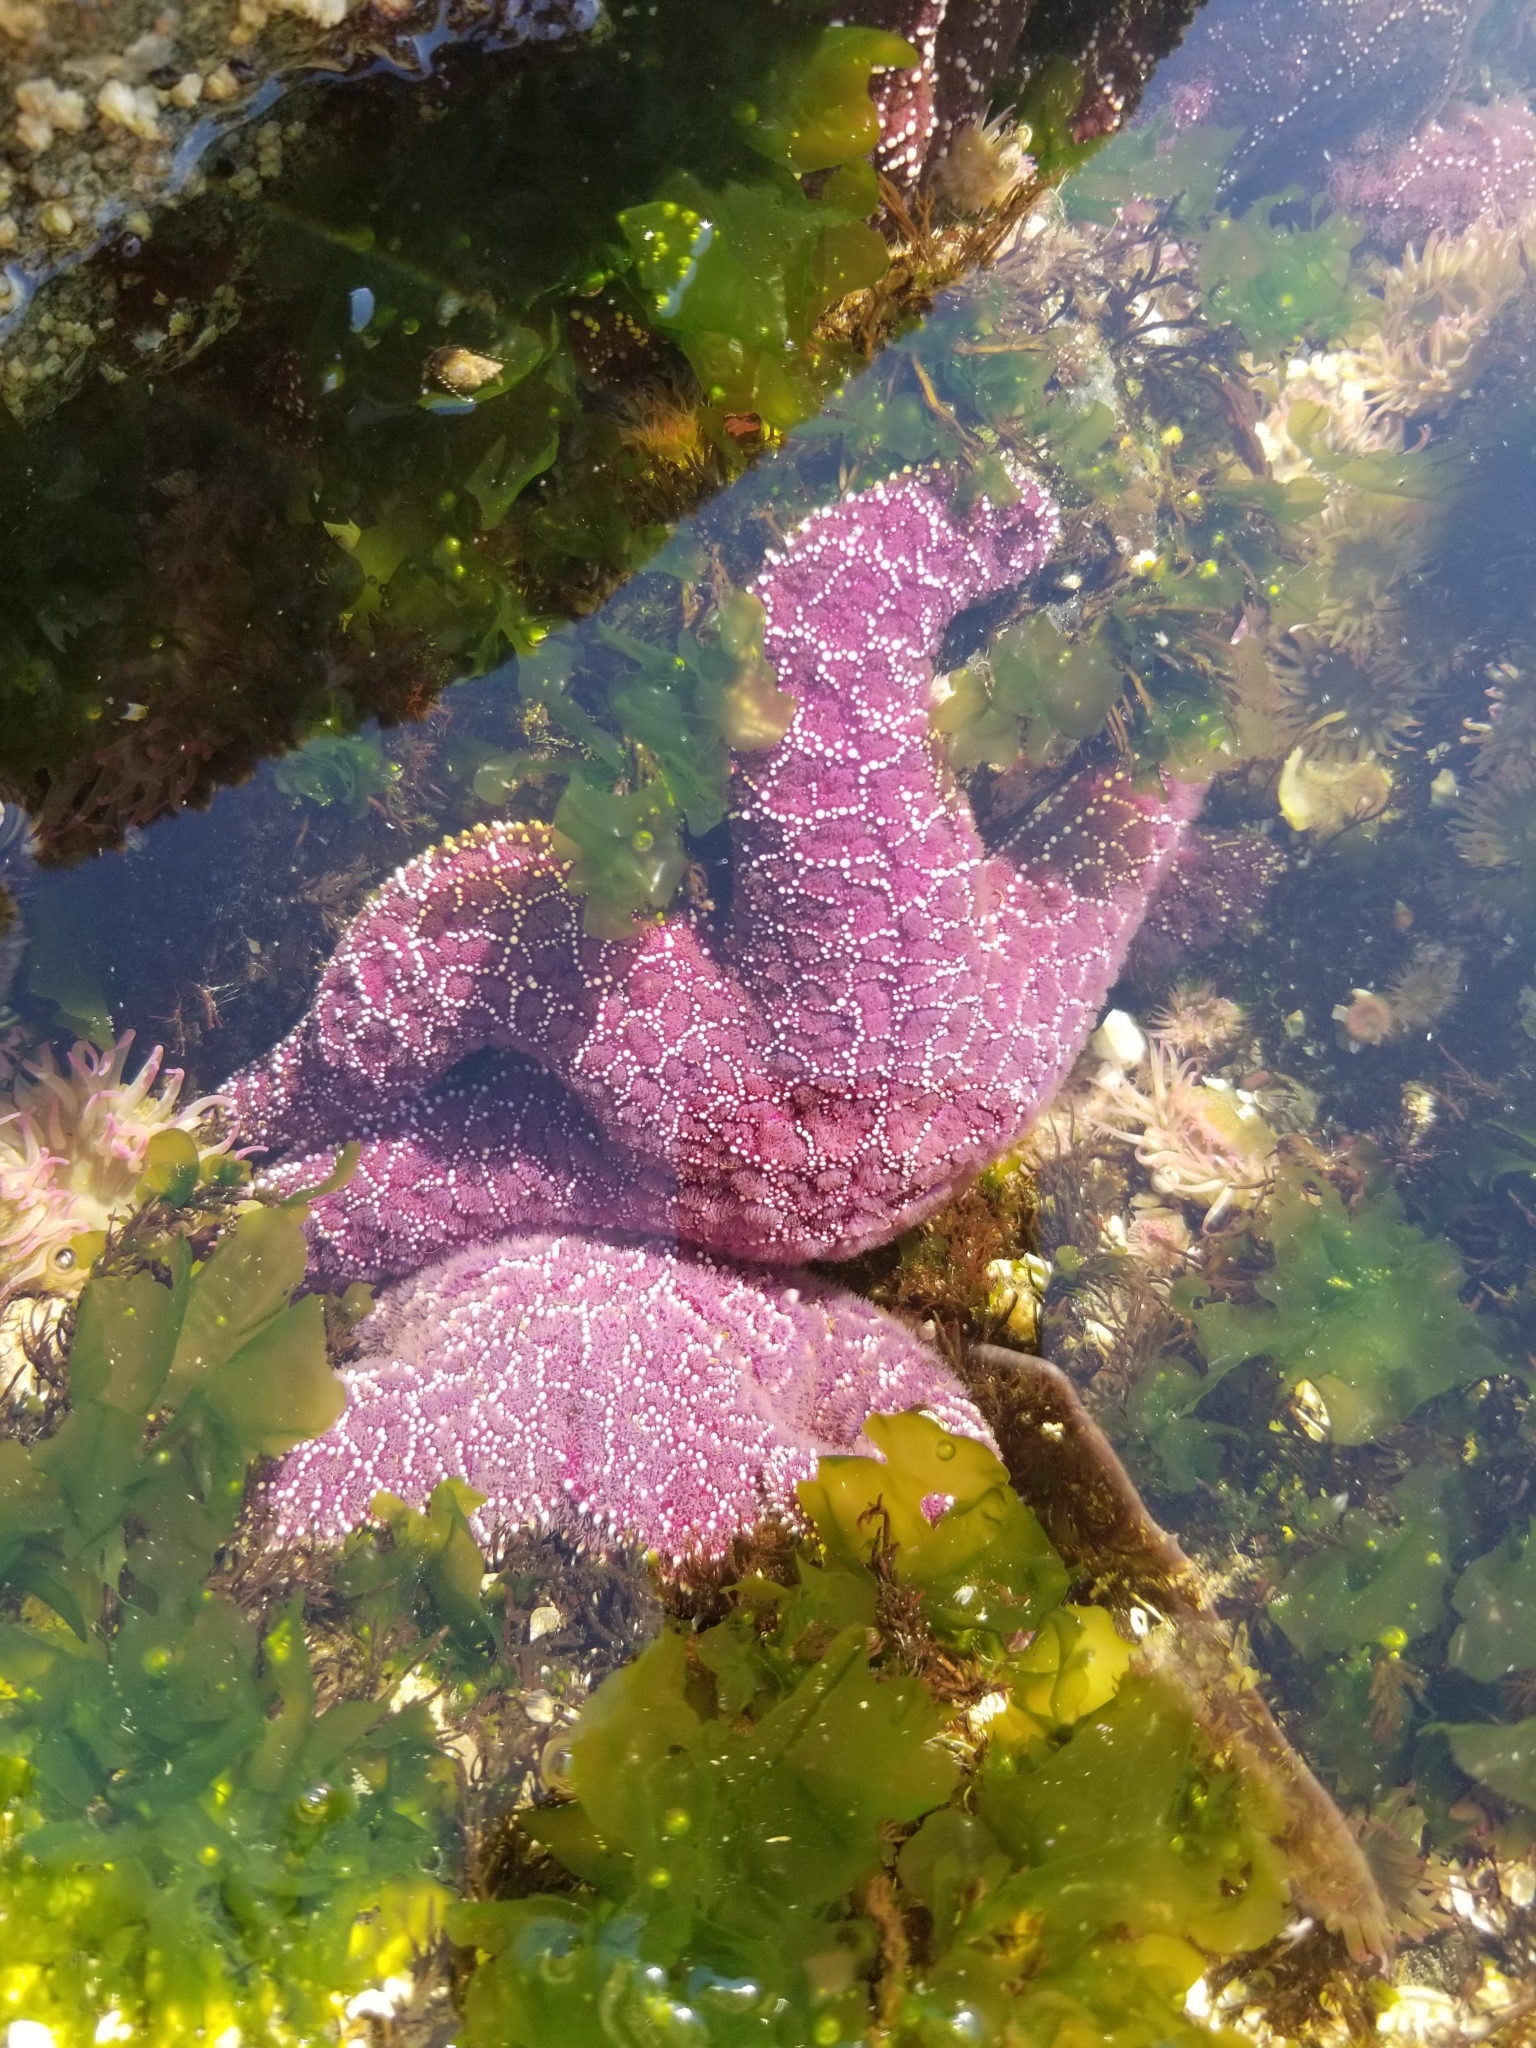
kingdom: Animalia
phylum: Echinodermata
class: Asteroidea
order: Forcipulatida
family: Asteriidae
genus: Pisaster
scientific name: Pisaster ochraceus
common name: Ochre stars
